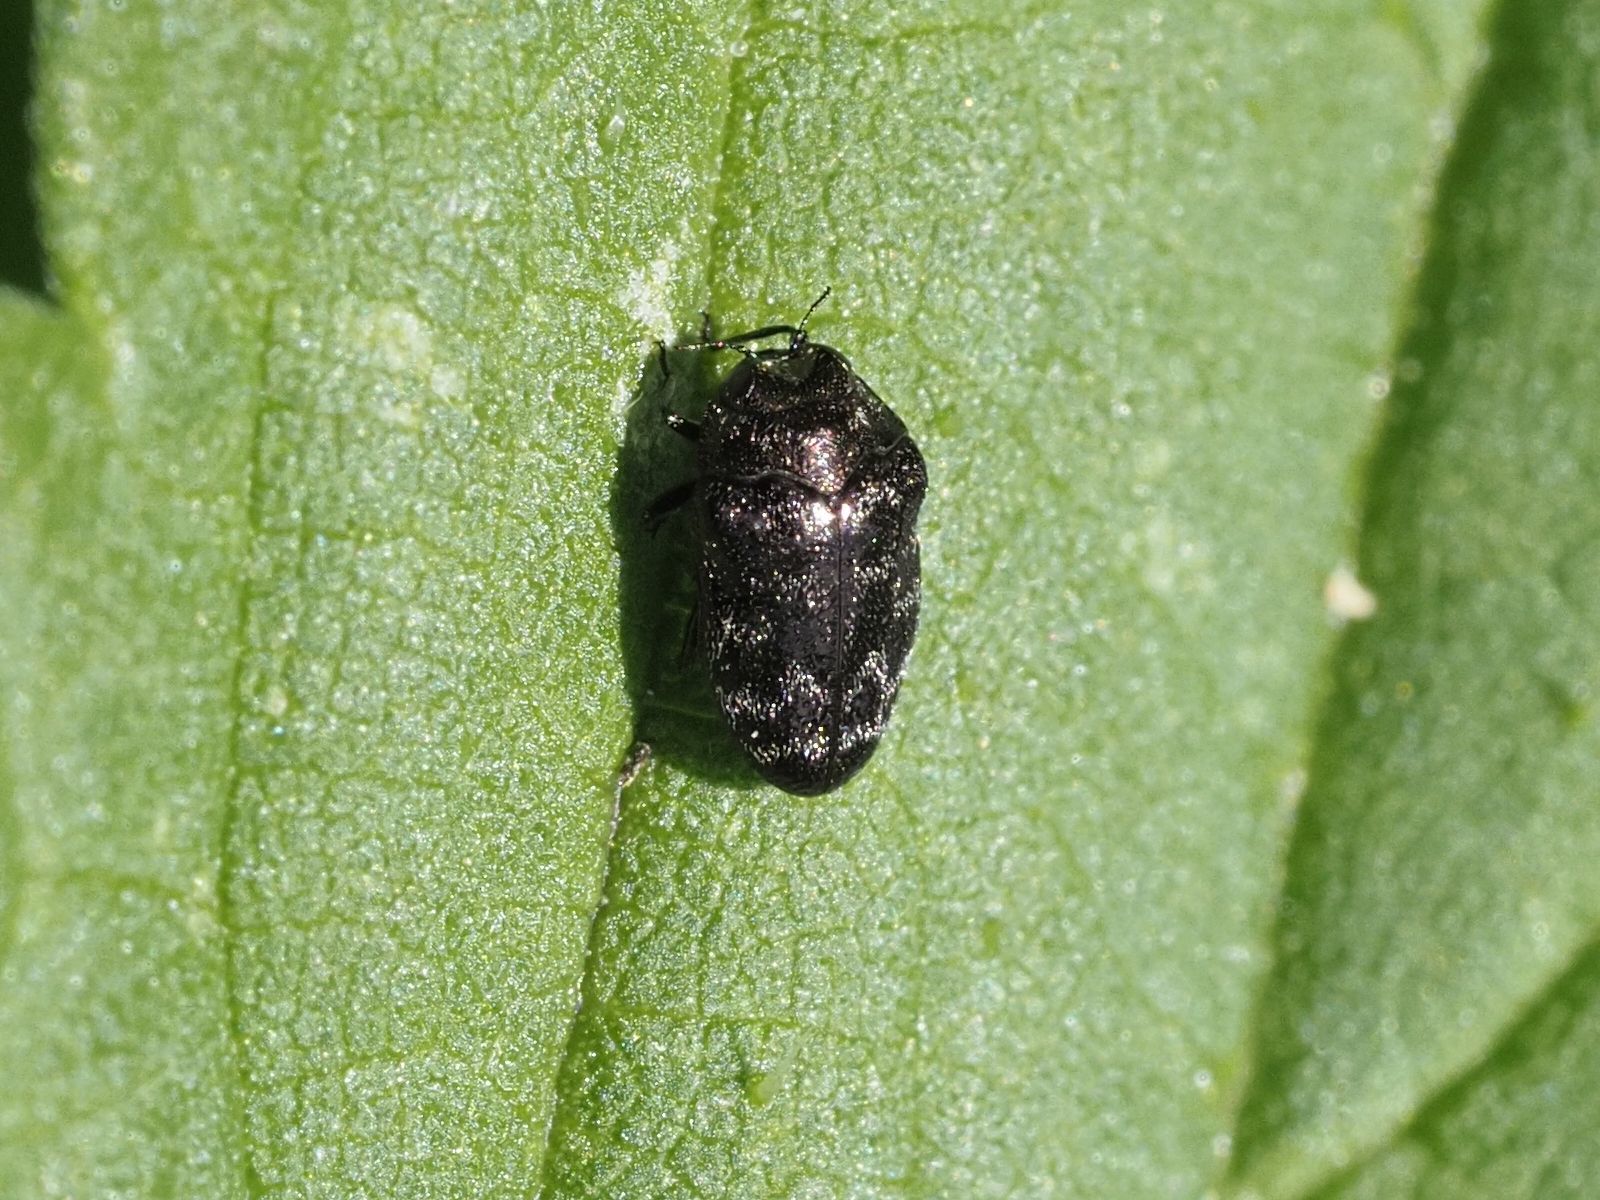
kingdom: Animalia
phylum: Arthropoda
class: Insecta
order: Coleoptera
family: Buprestidae
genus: Trachys
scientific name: Trachys minutus
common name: Metallic wood-boring beetle
